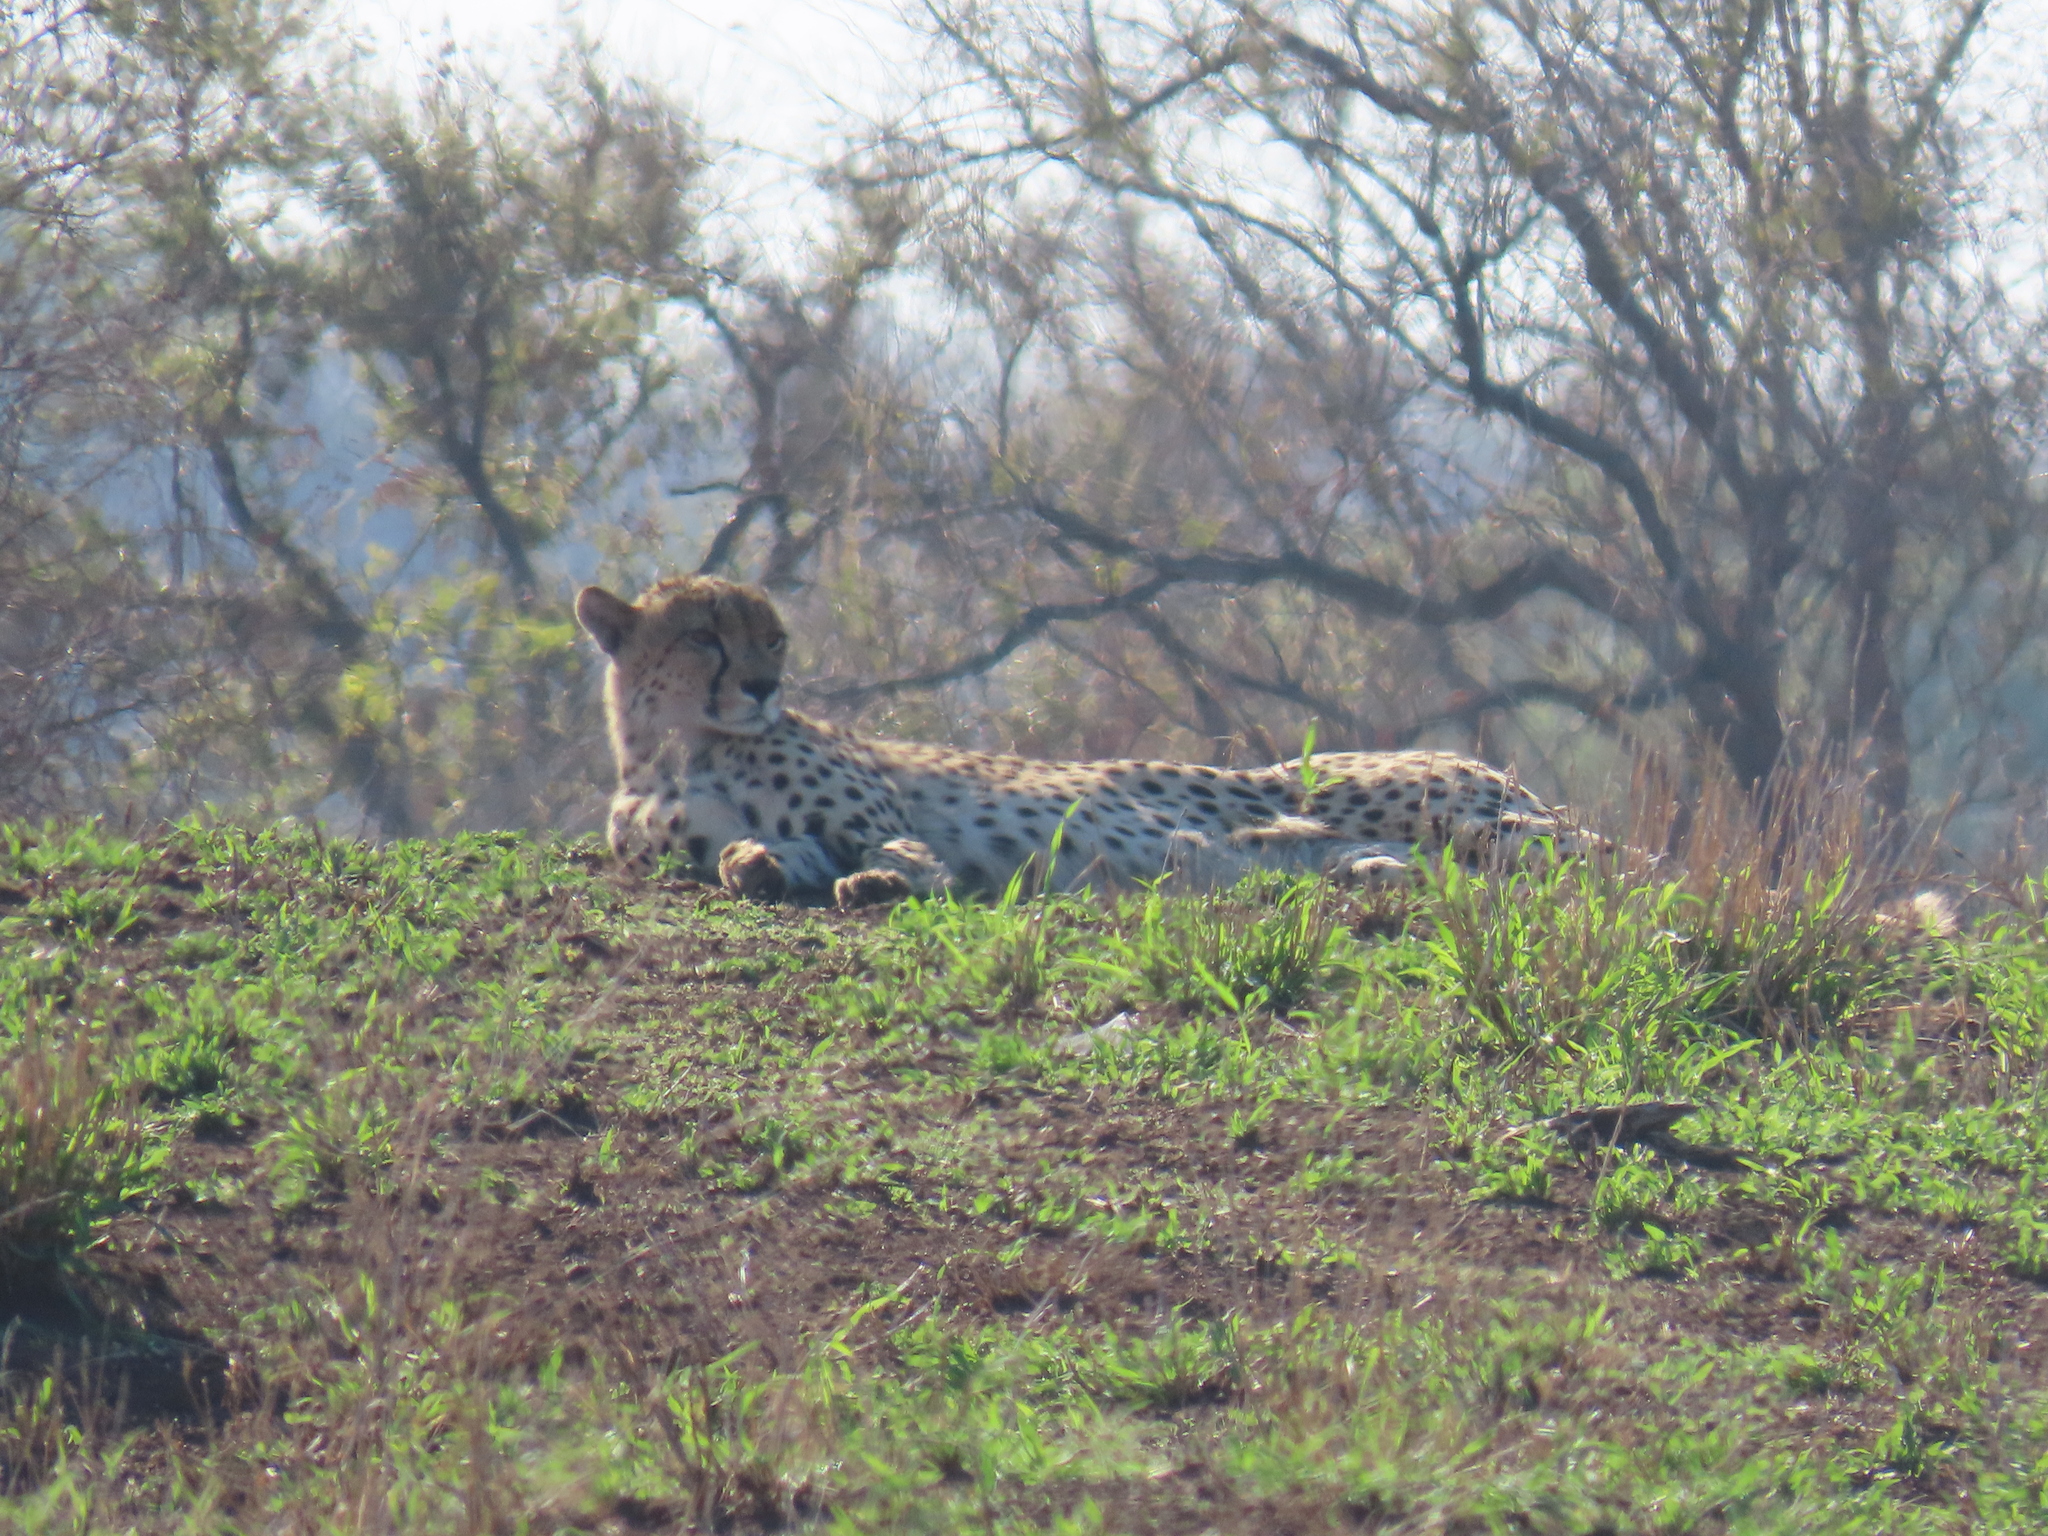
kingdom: Animalia
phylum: Chordata
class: Mammalia
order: Carnivora
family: Felidae
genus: Acinonyx
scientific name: Acinonyx jubatus
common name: Cheetah
